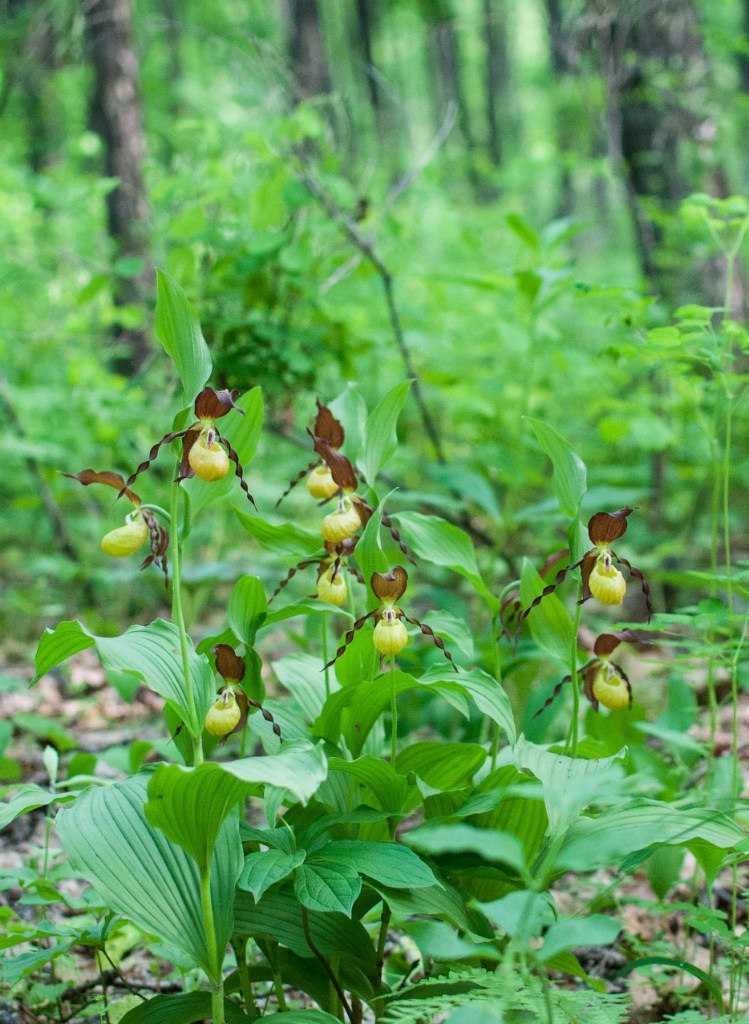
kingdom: Plantae
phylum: Tracheophyta
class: Liliopsida
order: Asparagales
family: Orchidaceae
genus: Cypripedium
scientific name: Cypripedium calceolus
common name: Lady's-slipper
